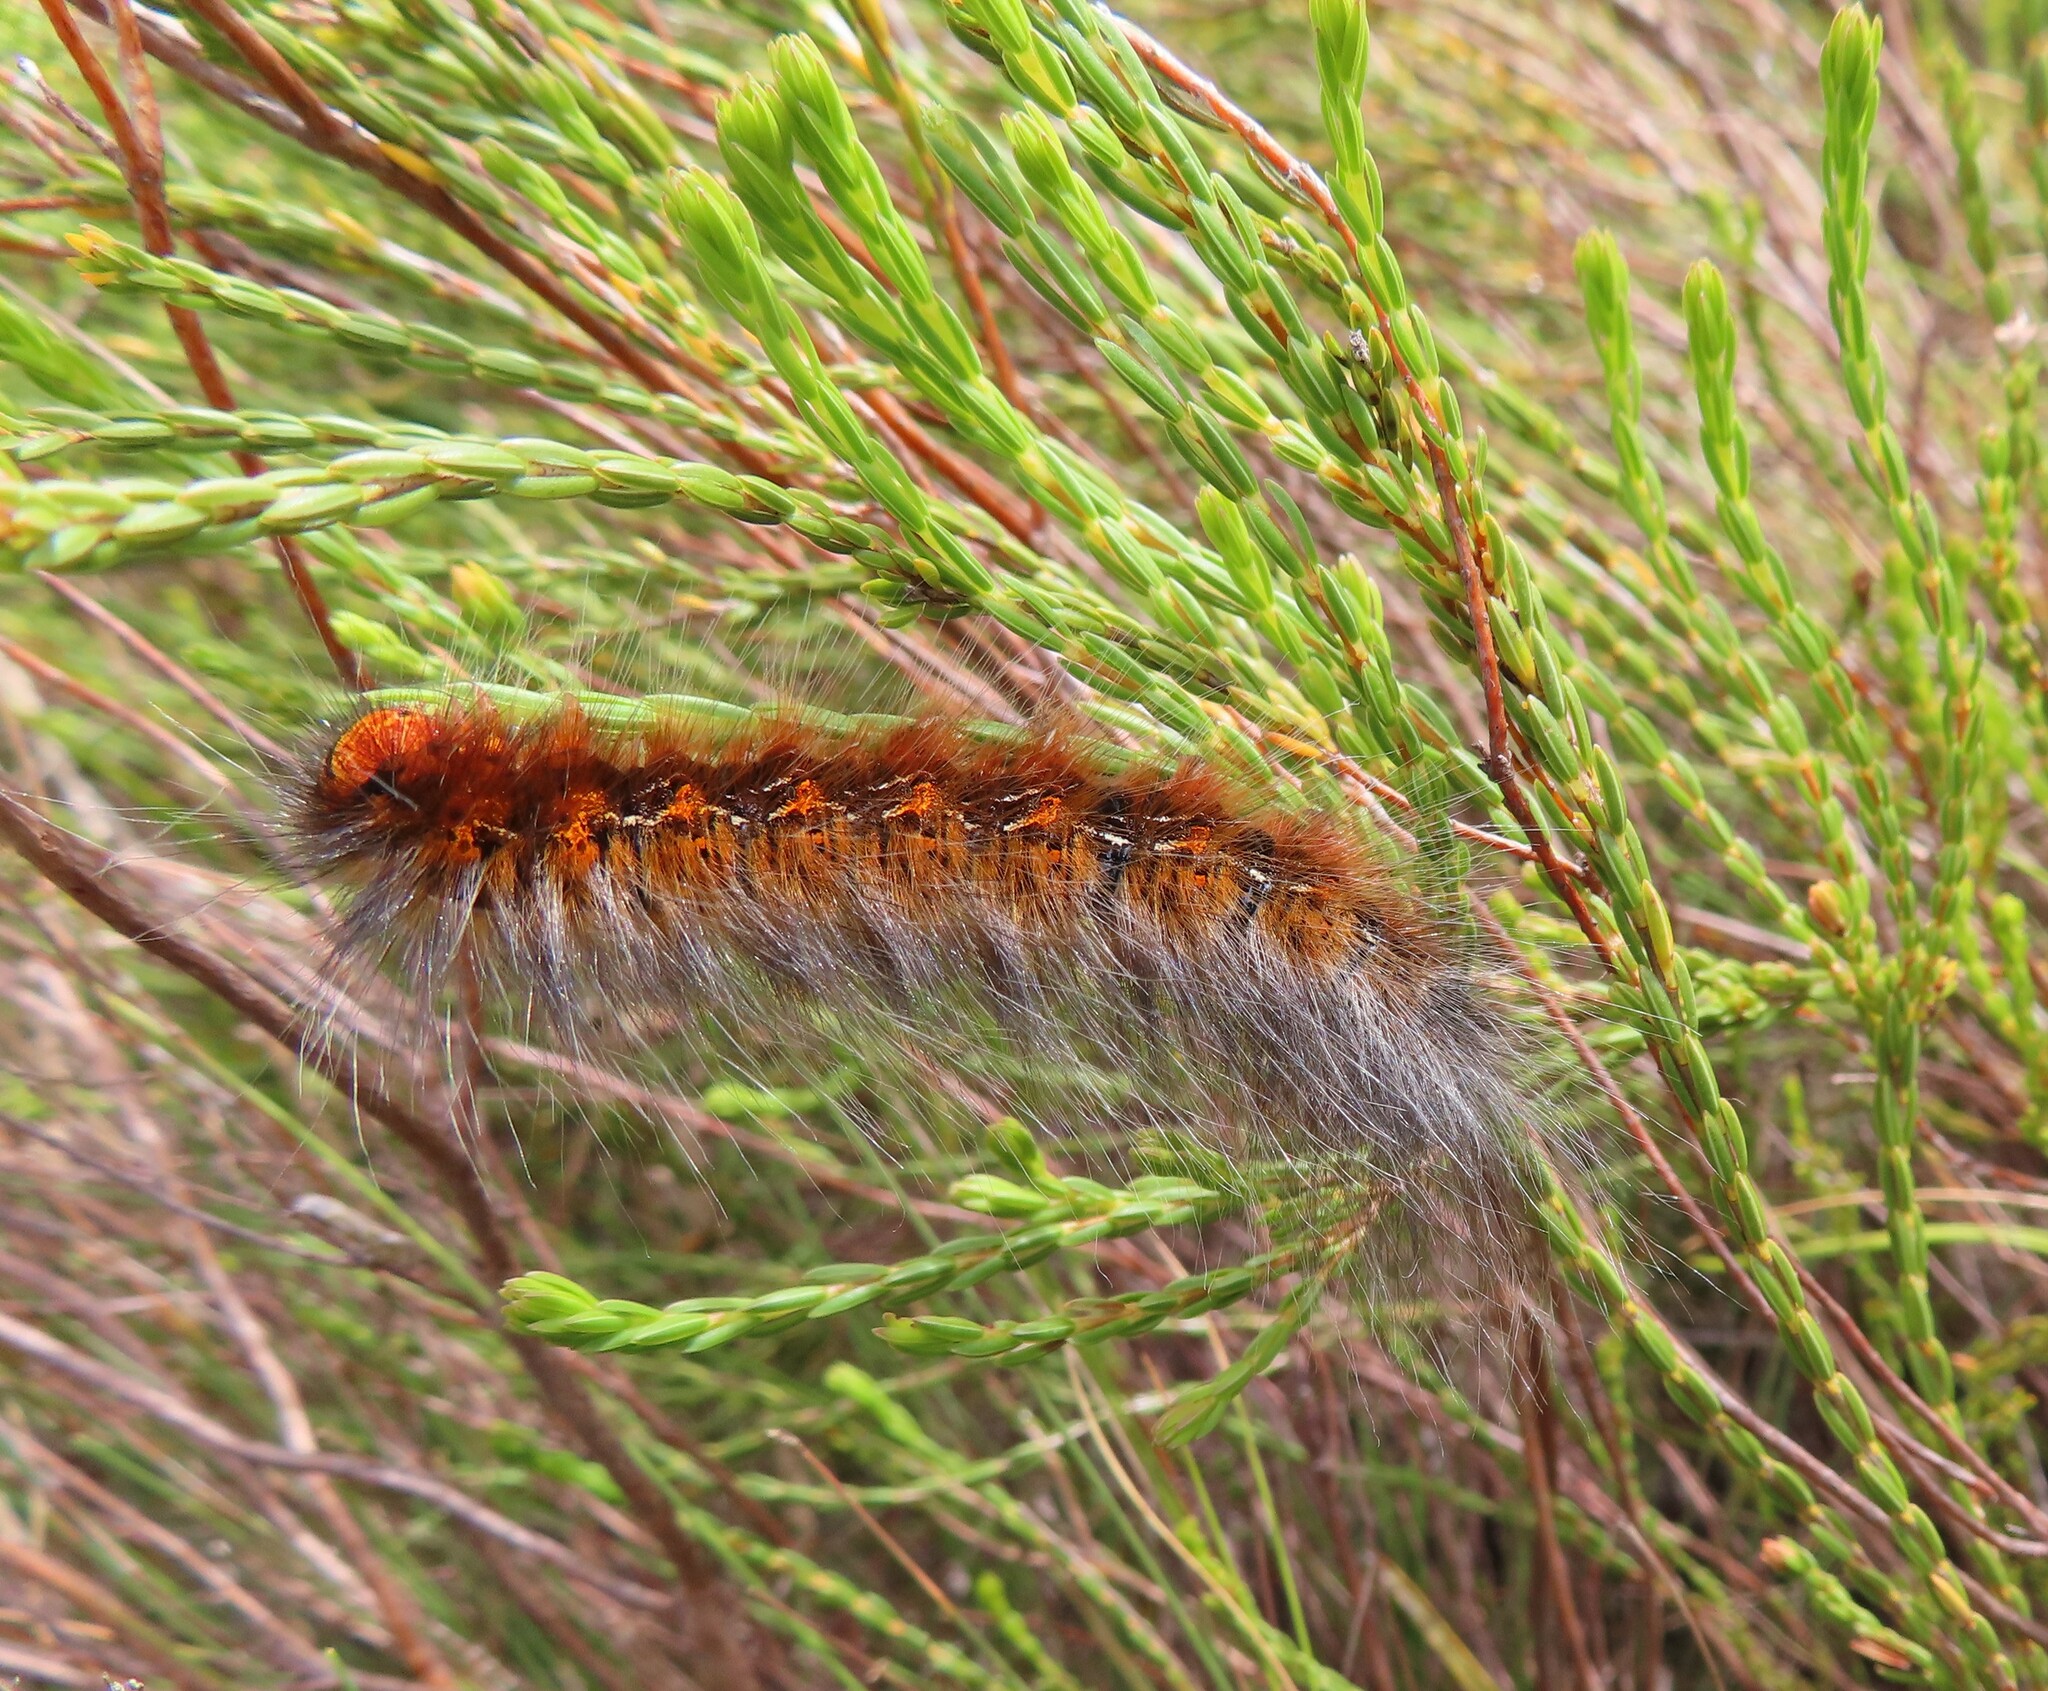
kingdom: Animalia
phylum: Arthropoda
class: Insecta
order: Lepidoptera
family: Lasiocampidae
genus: Mesocelis
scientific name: Mesocelis monticola
